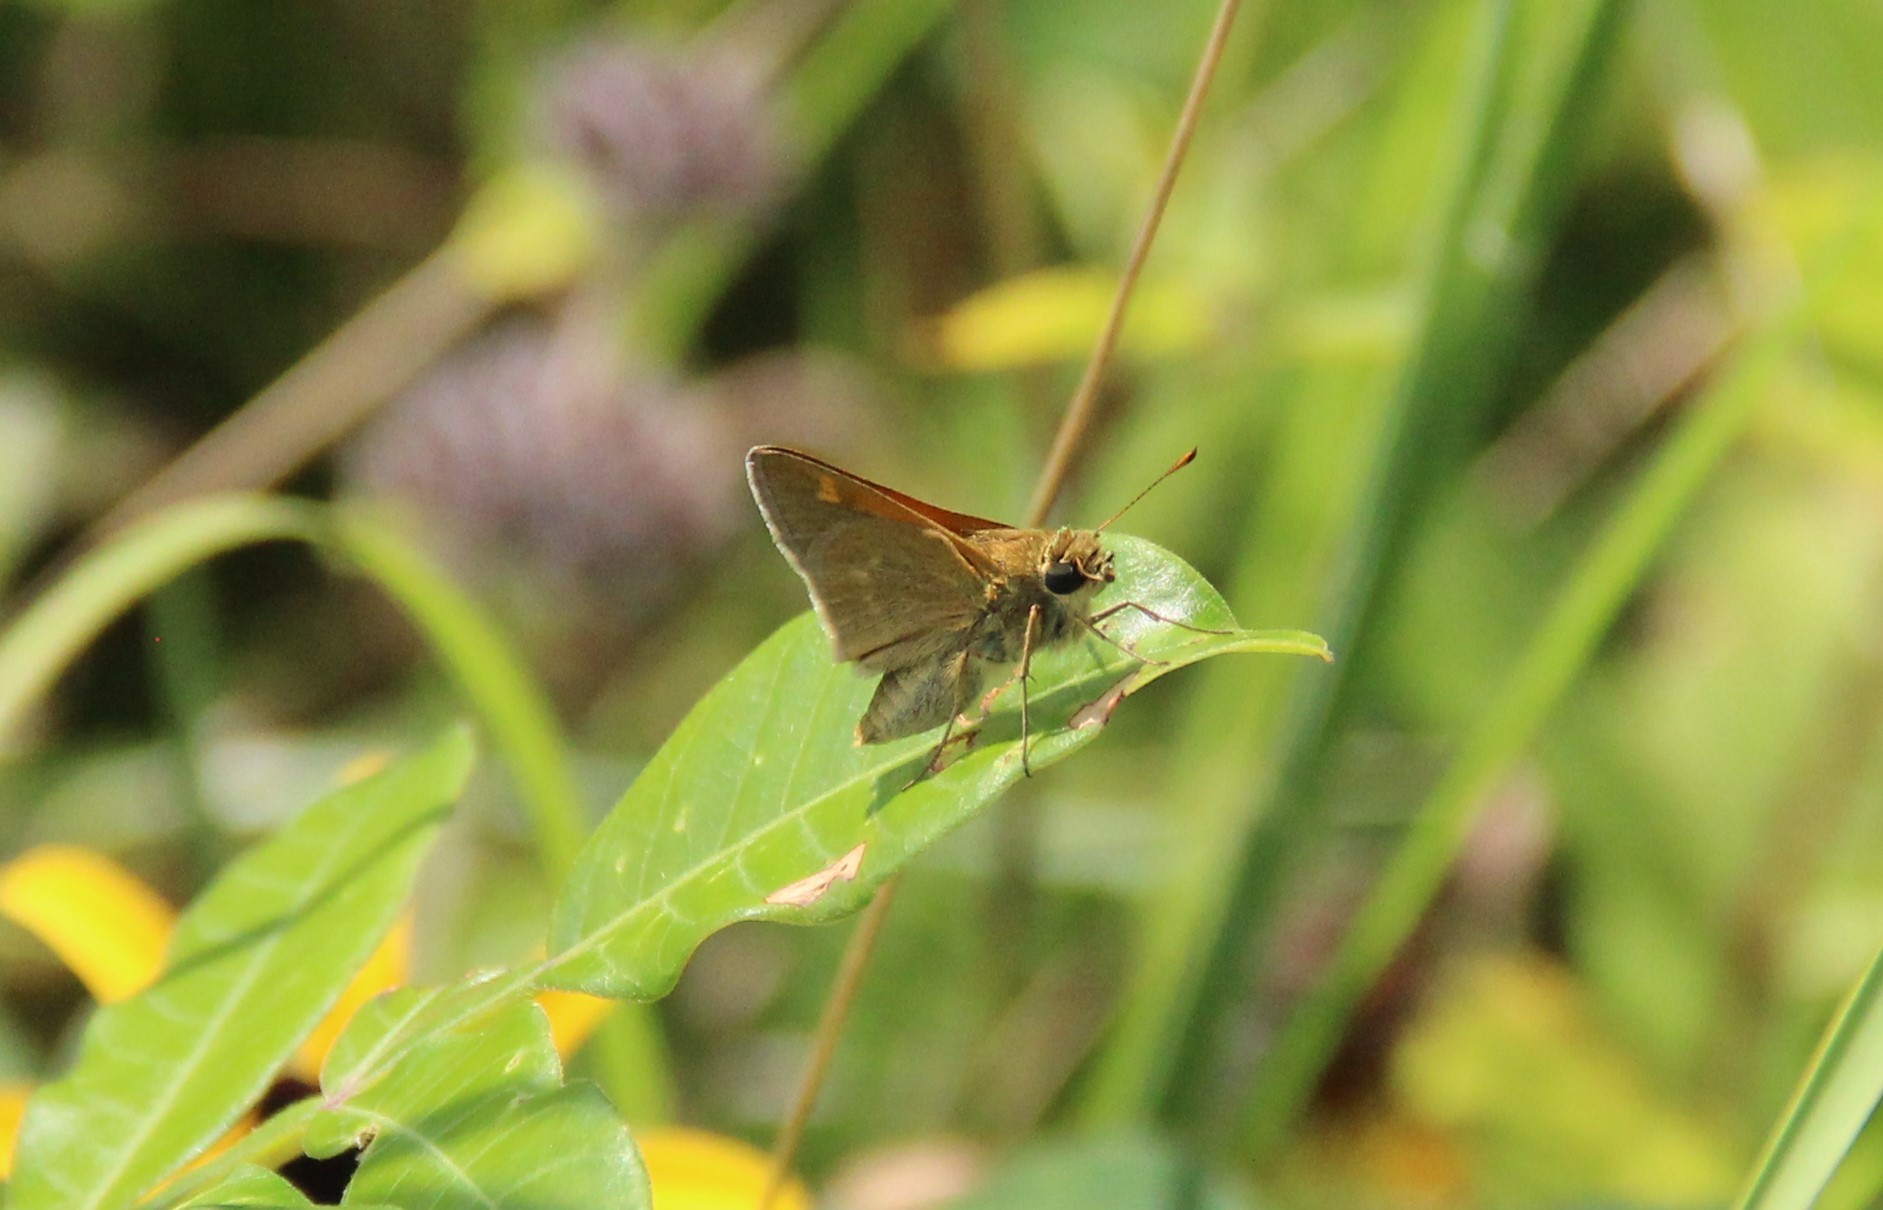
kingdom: Animalia
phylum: Arthropoda
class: Insecta
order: Lepidoptera
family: Hesperiidae
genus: Polites
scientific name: Polites themistocles
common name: Tawny-edged skipper
